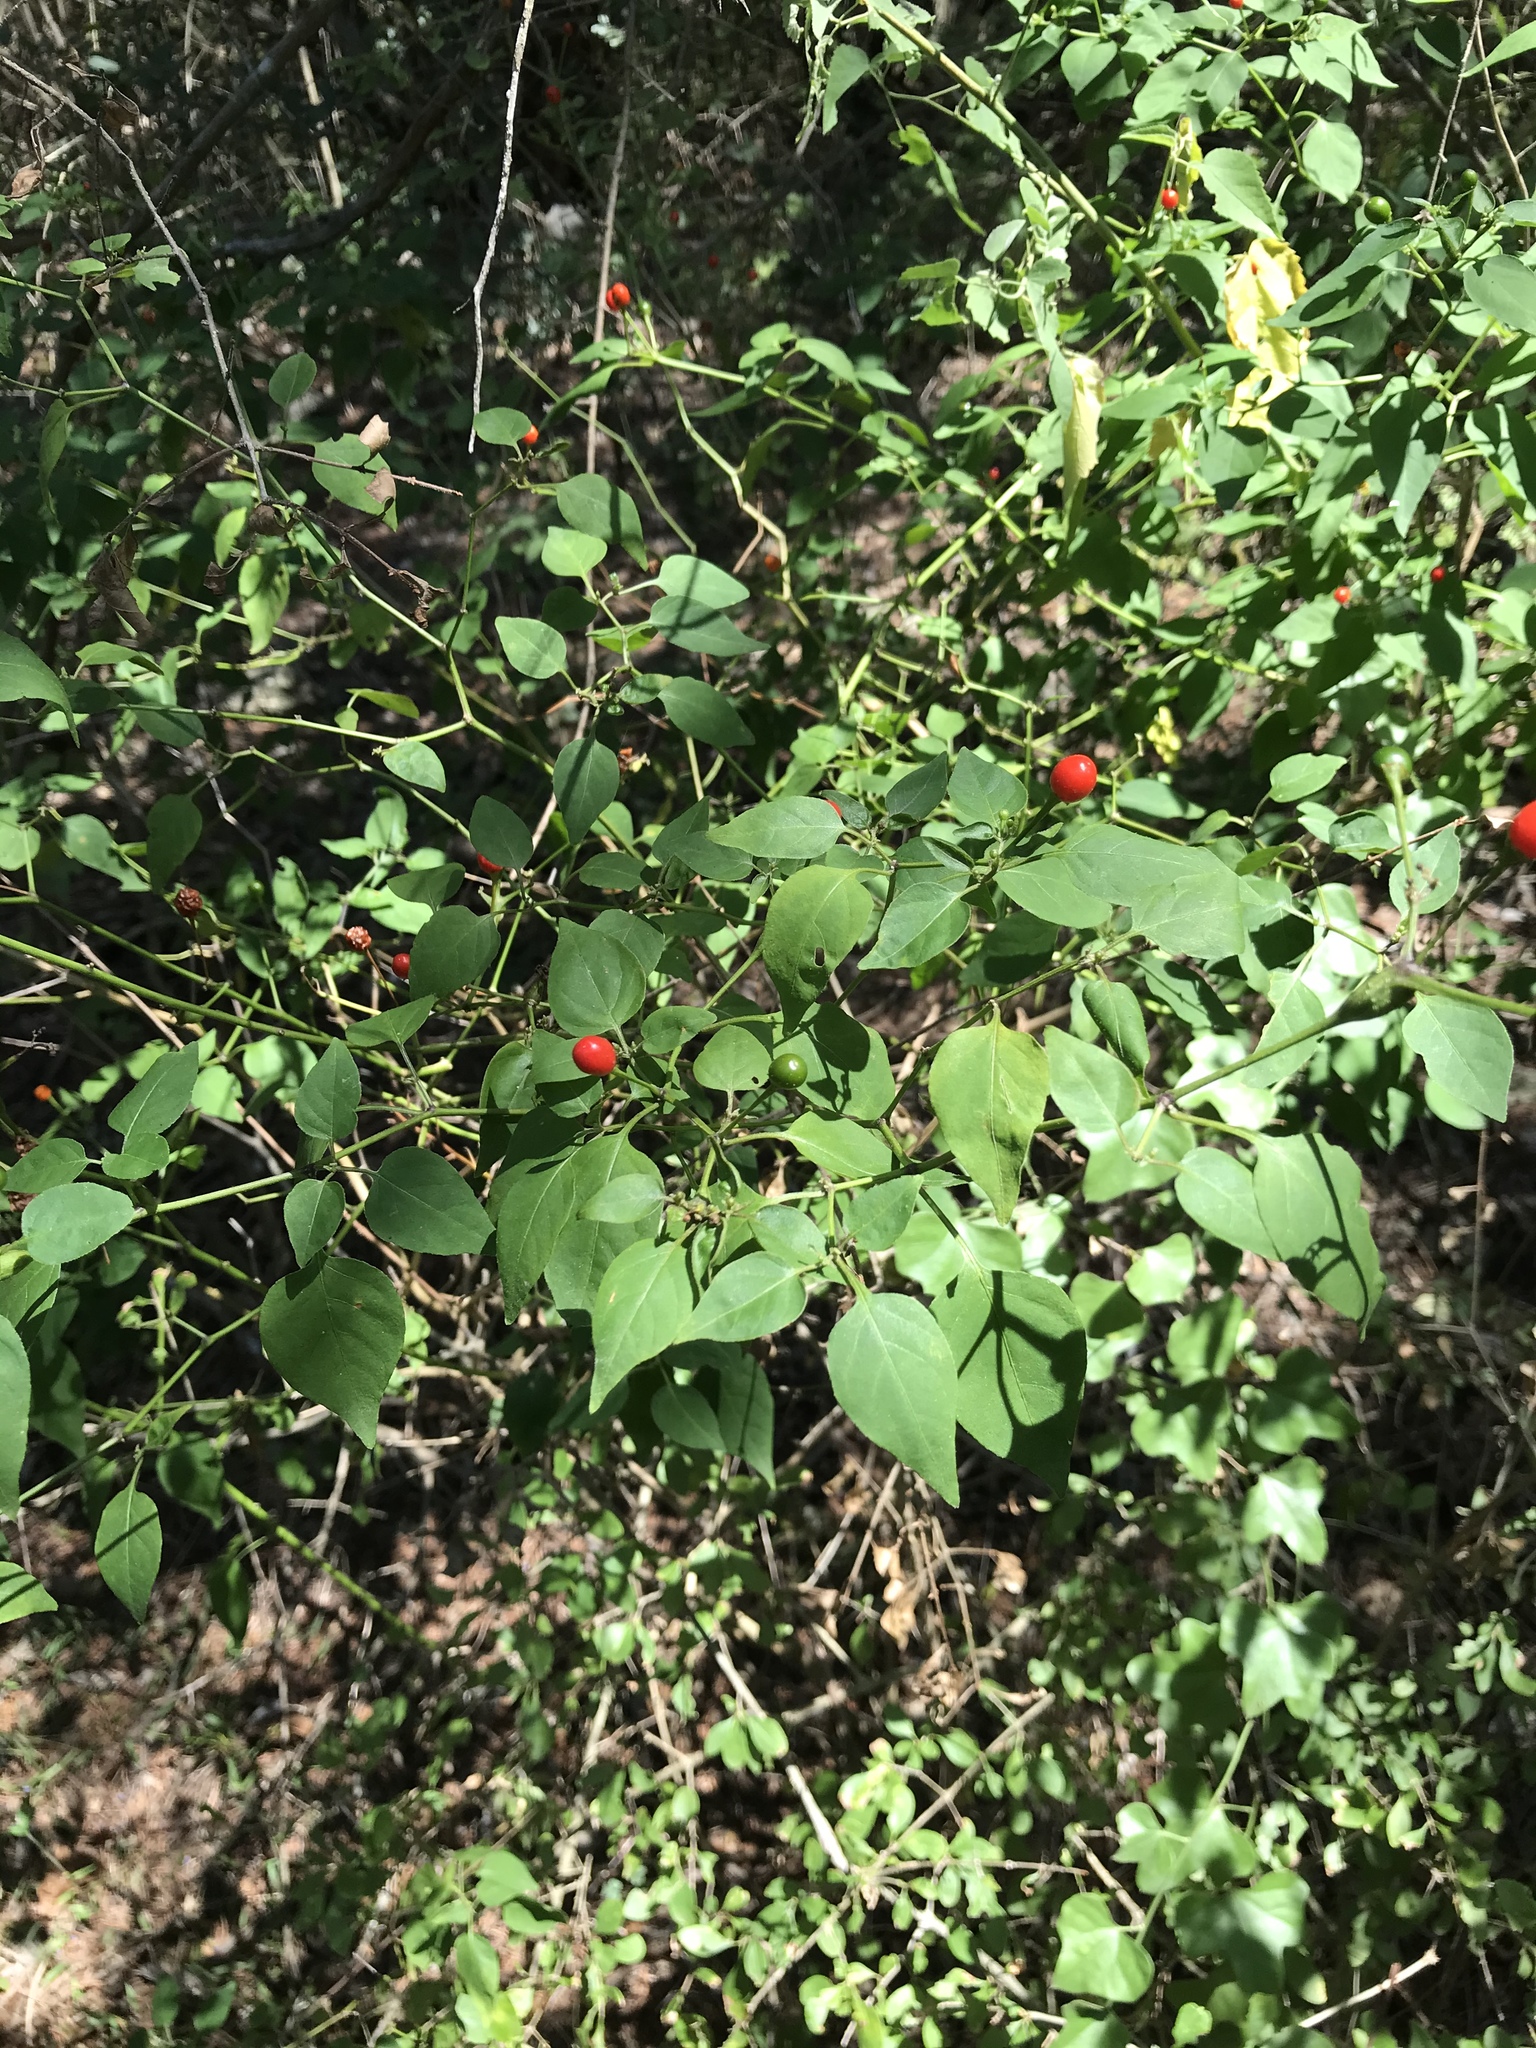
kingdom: Plantae
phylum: Tracheophyta
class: Magnoliopsida
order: Solanales
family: Solanaceae
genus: Capsicum
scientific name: Capsicum annuum
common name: Sweet pepper
